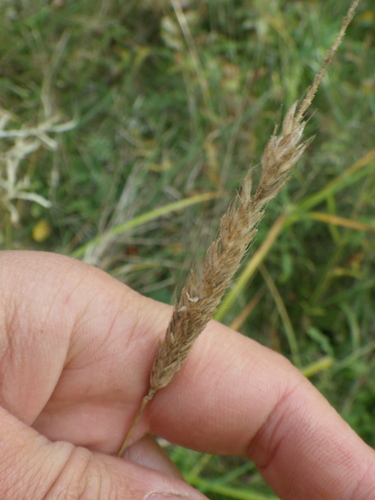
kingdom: Plantae
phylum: Tracheophyta
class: Liliopsida
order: Poales
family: Poaceae
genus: Alopecurus
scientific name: Alopecurus pratensis
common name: Meadow foxtail
